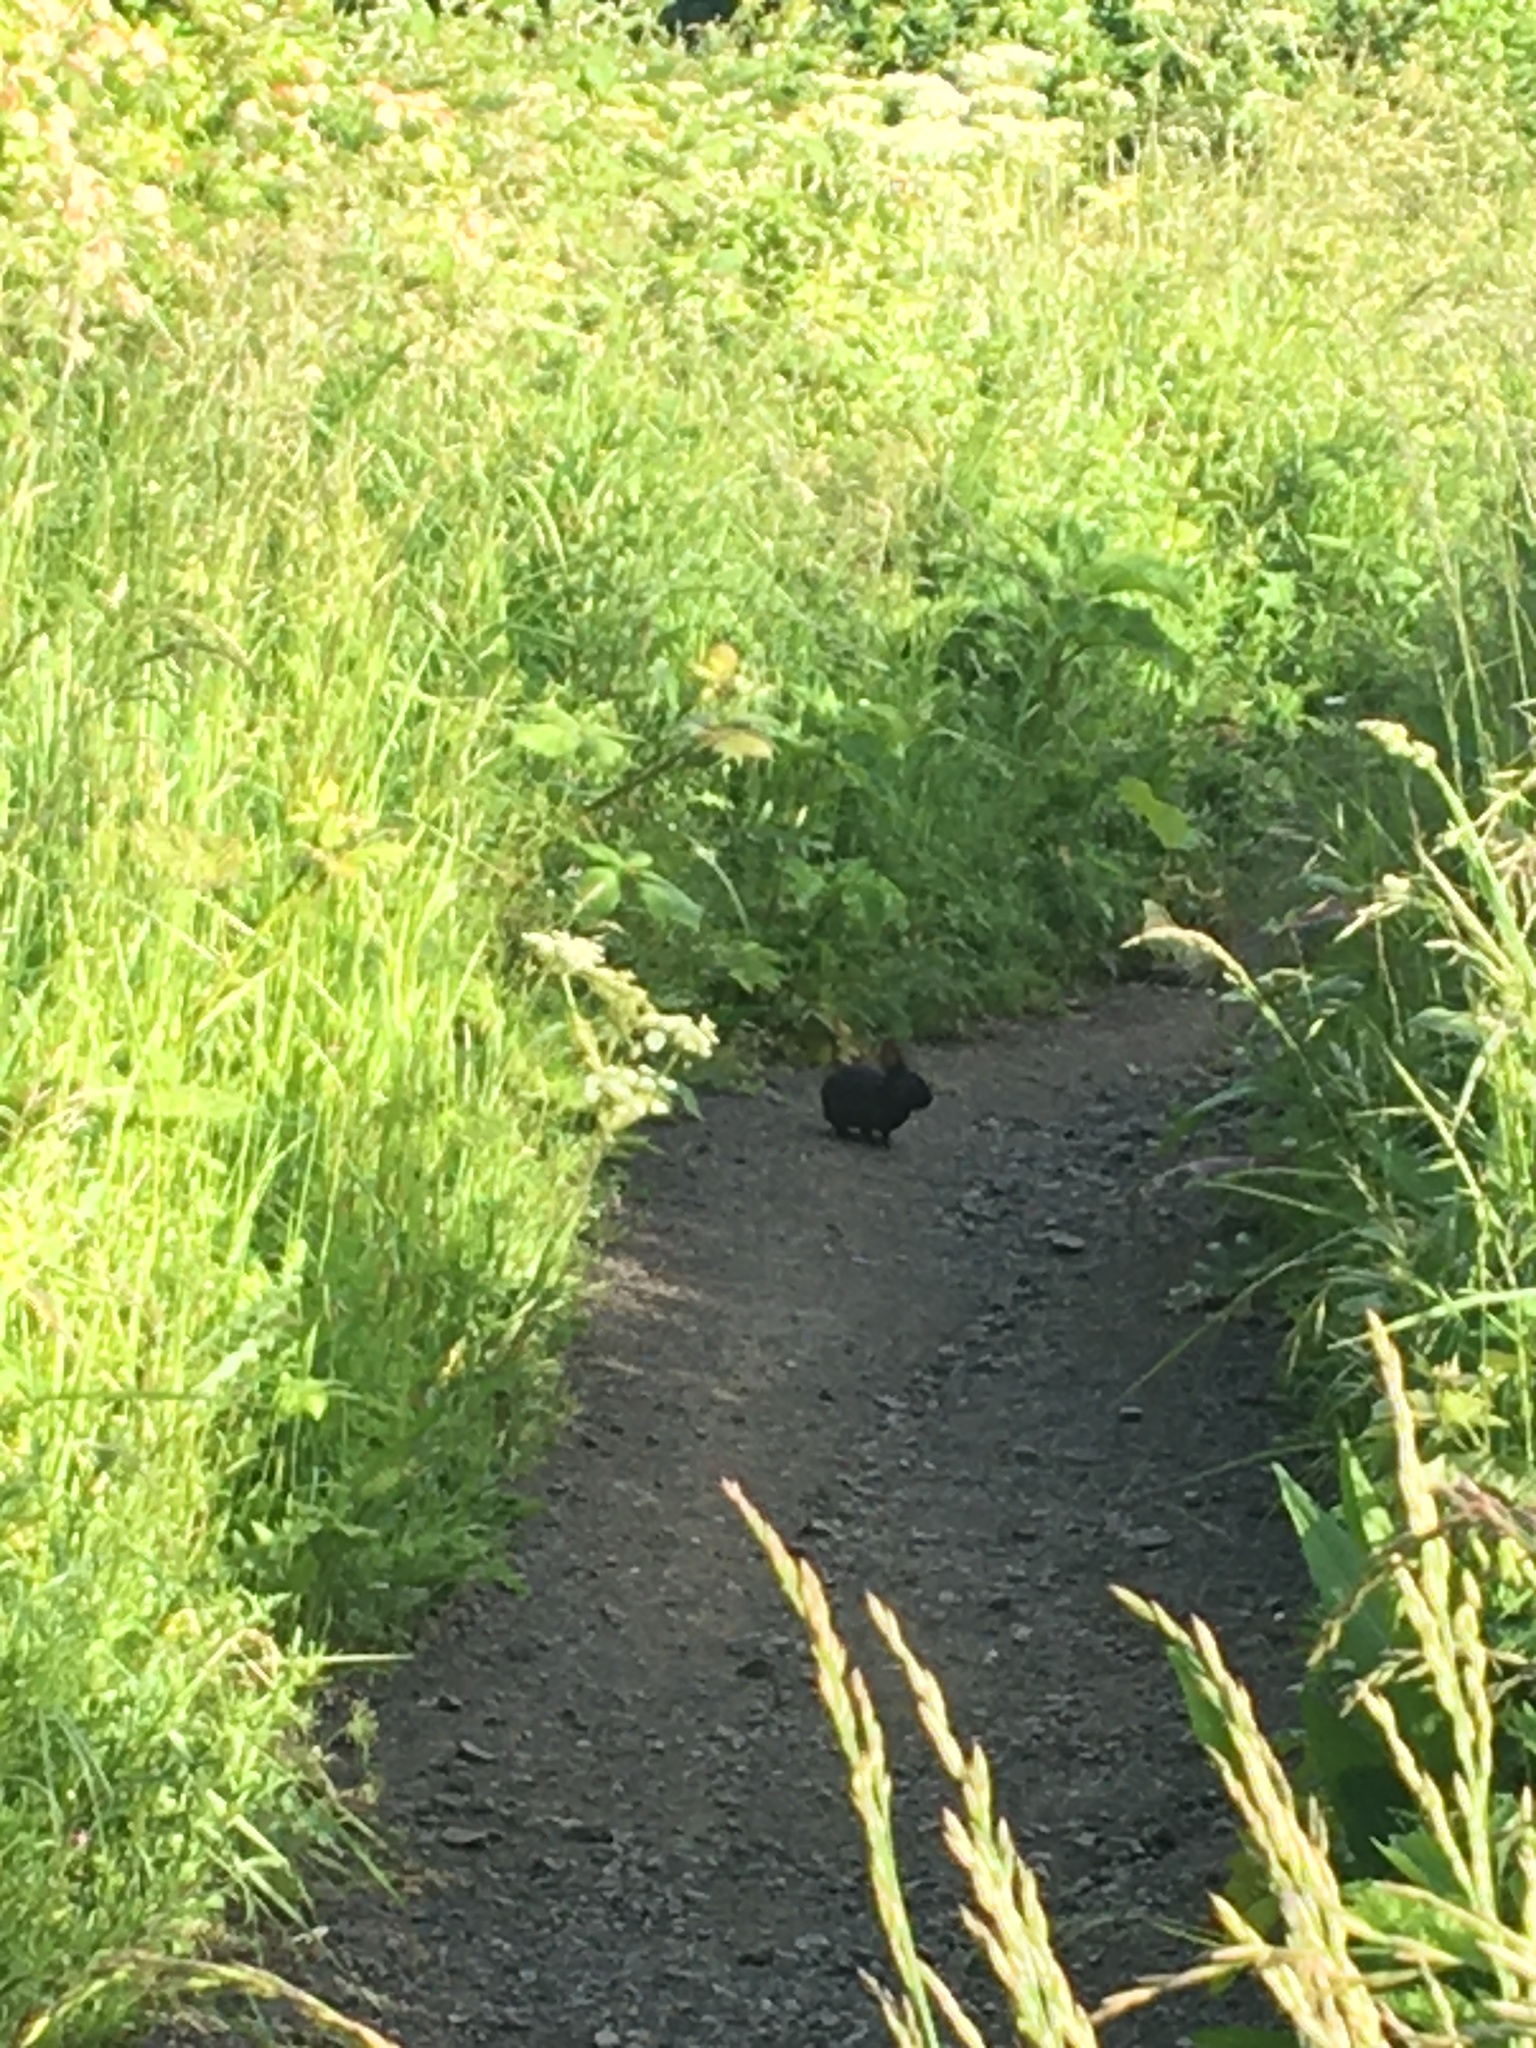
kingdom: Animalia
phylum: Chordata
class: Mammalia
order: Lagomorpha
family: Leporidae
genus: Sylvilagus
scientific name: Sylvilagus
